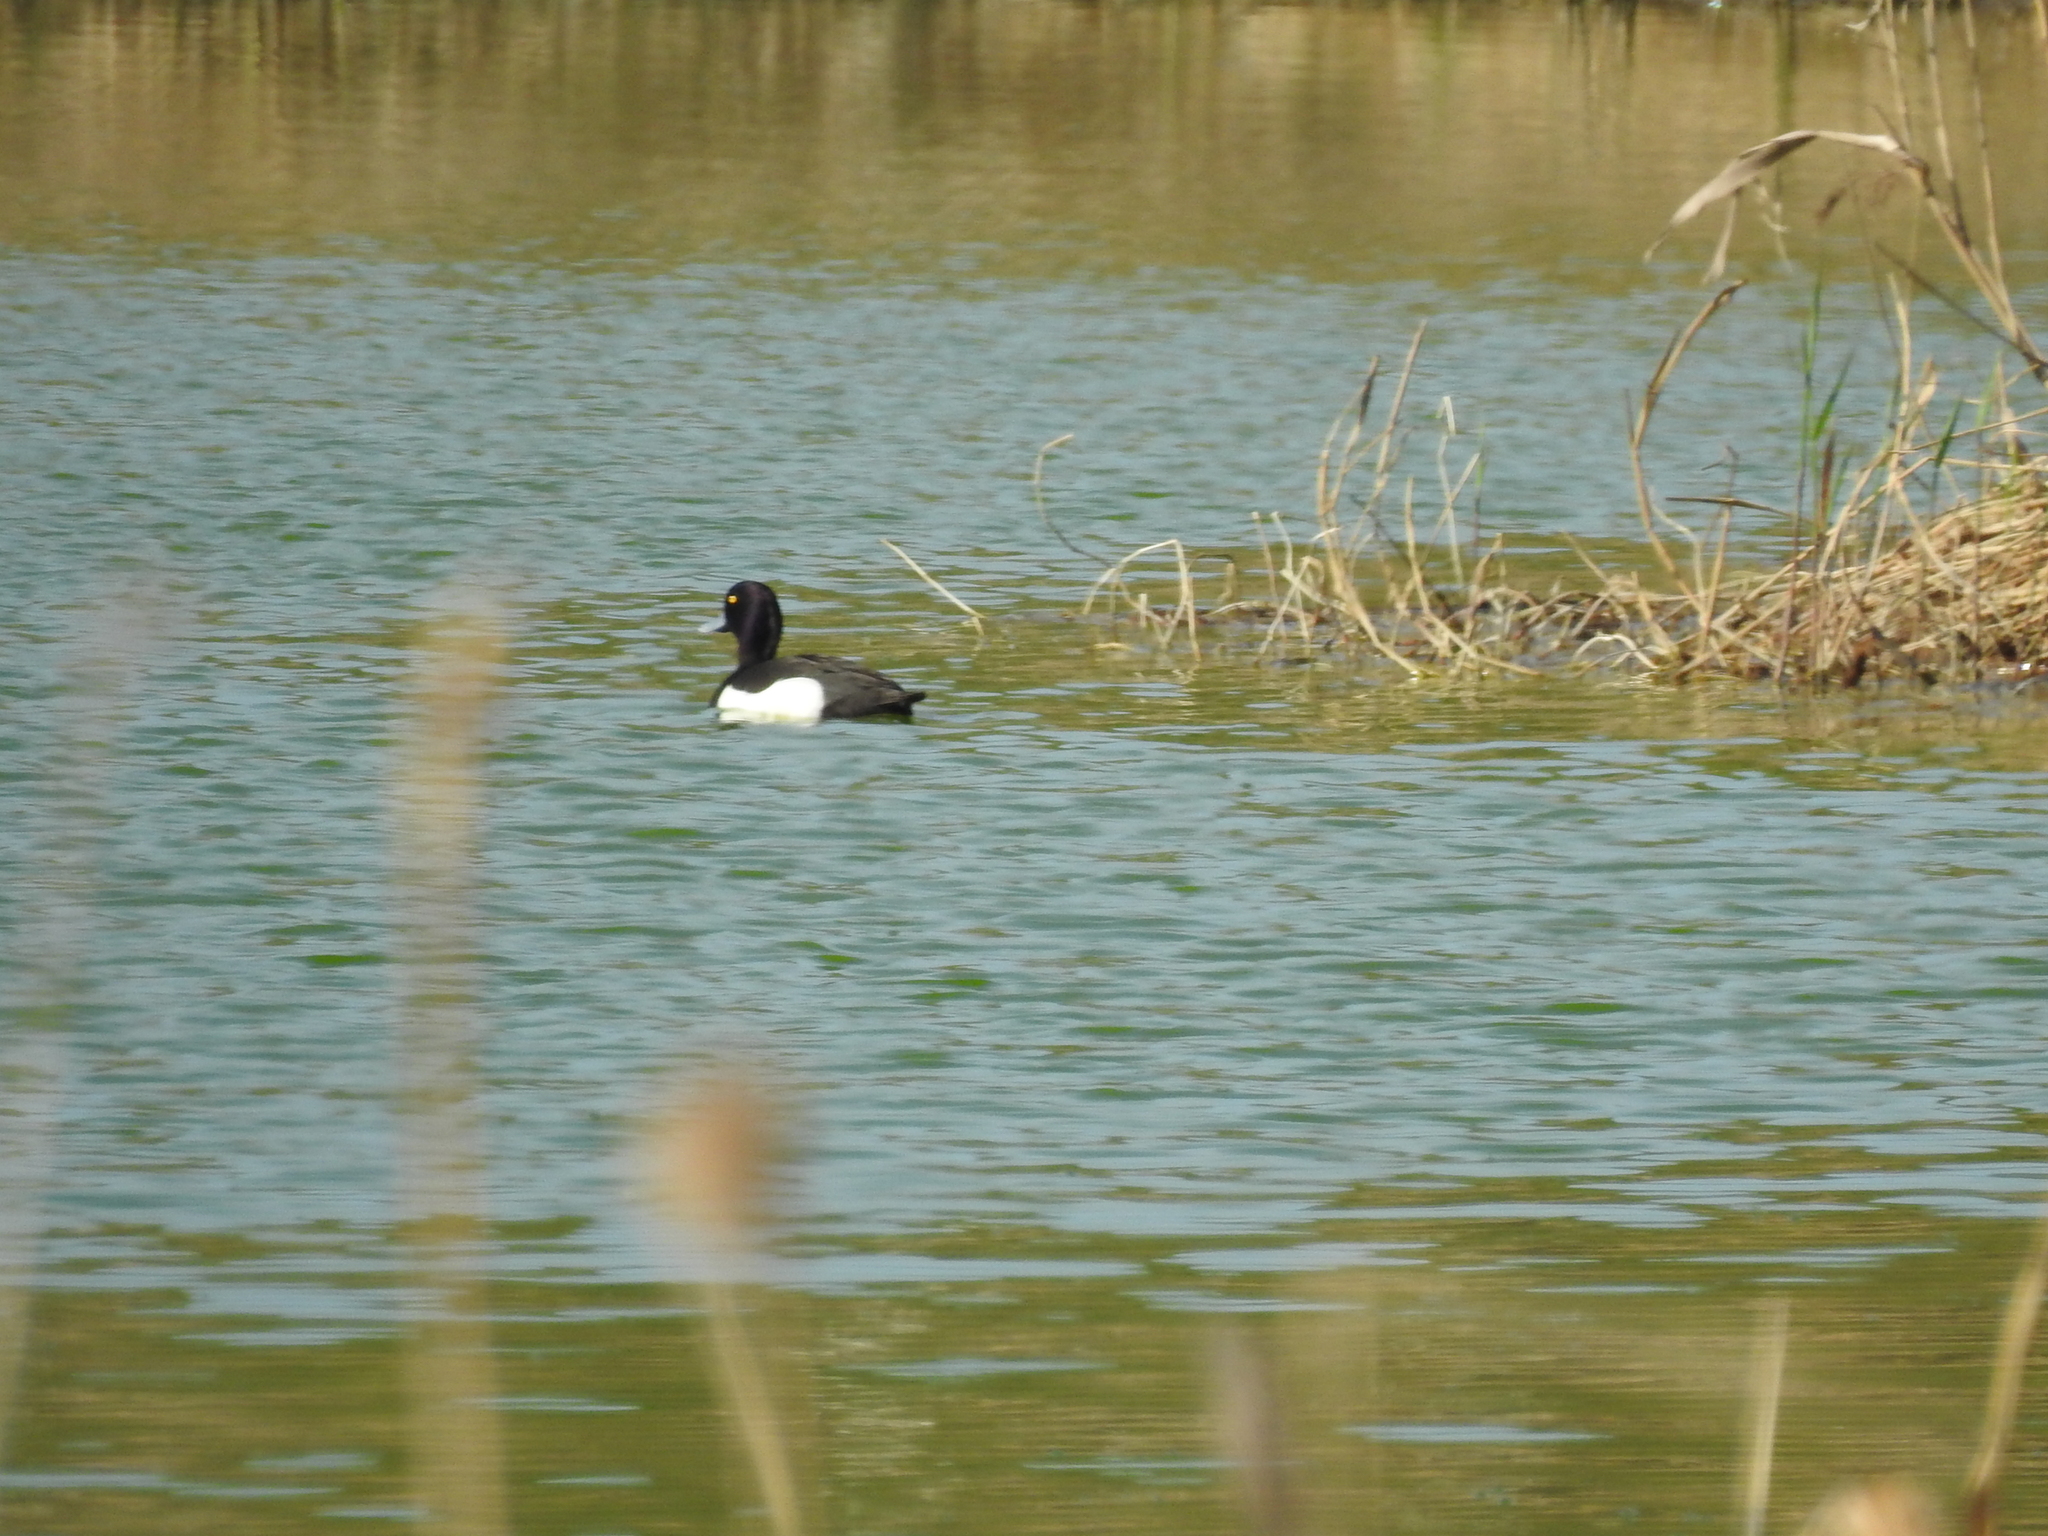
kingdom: Animalia
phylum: Chordata
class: Aves
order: Anseriformes
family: Anatidae
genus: Aythya
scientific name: Aythya fuligula
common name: Tufted duck
